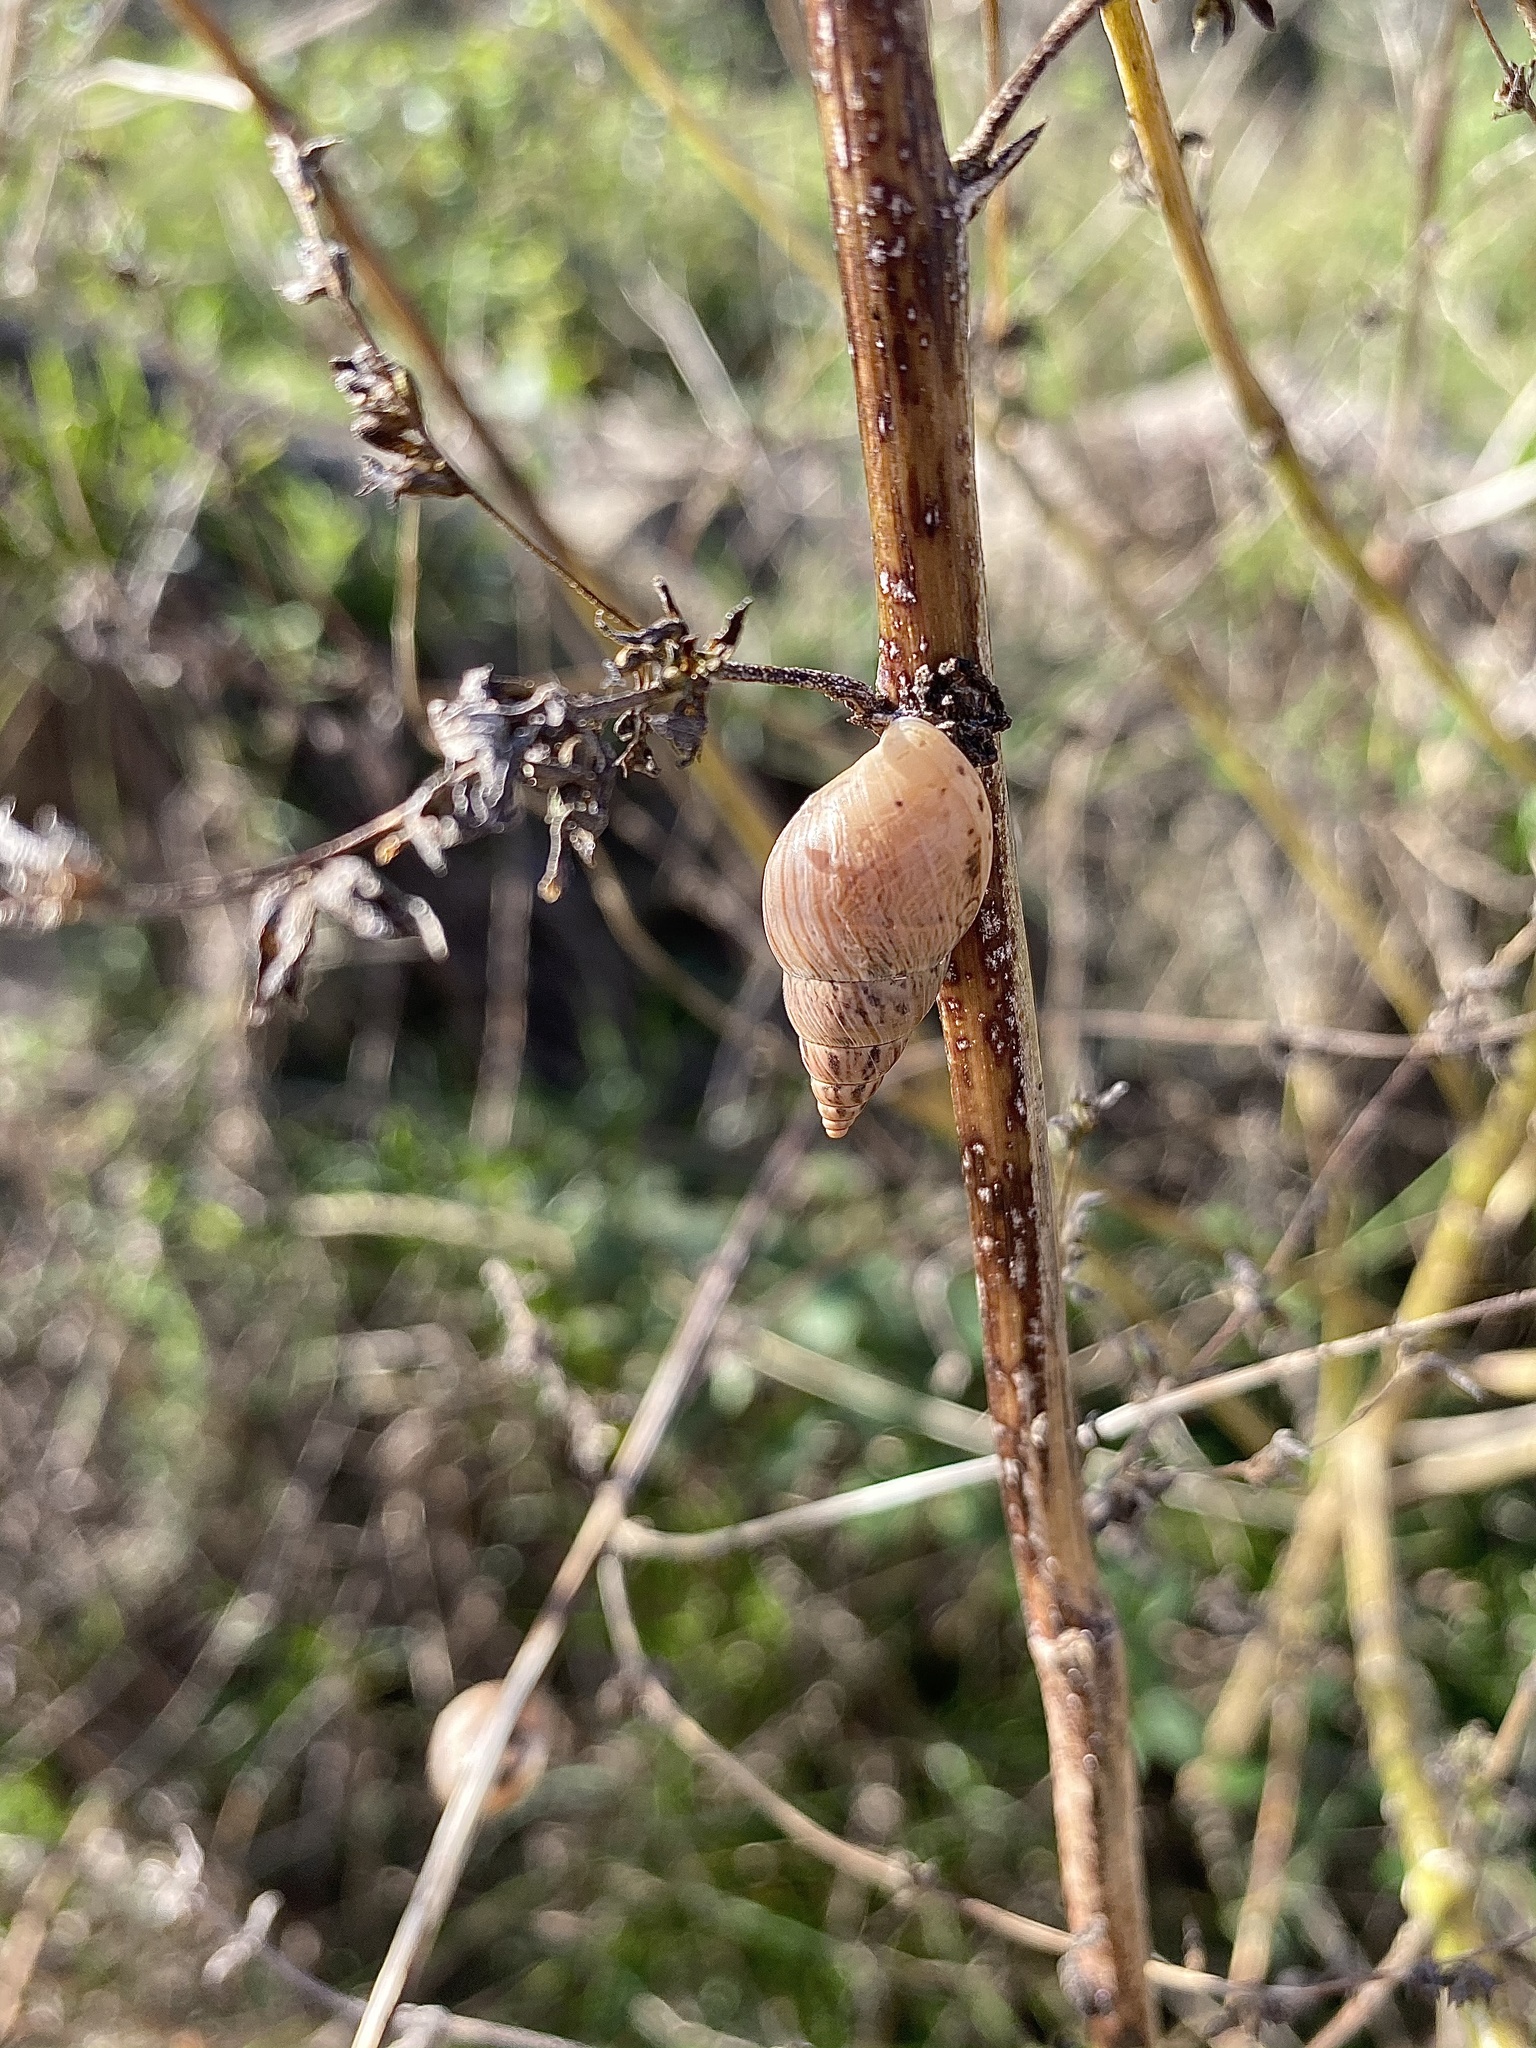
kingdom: Animalia
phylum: Mollusca
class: Gastropoda
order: Stylommatophora
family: Bulimulidae
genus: Bulimulus
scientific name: Bulimulus bonariensis
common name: Snail
